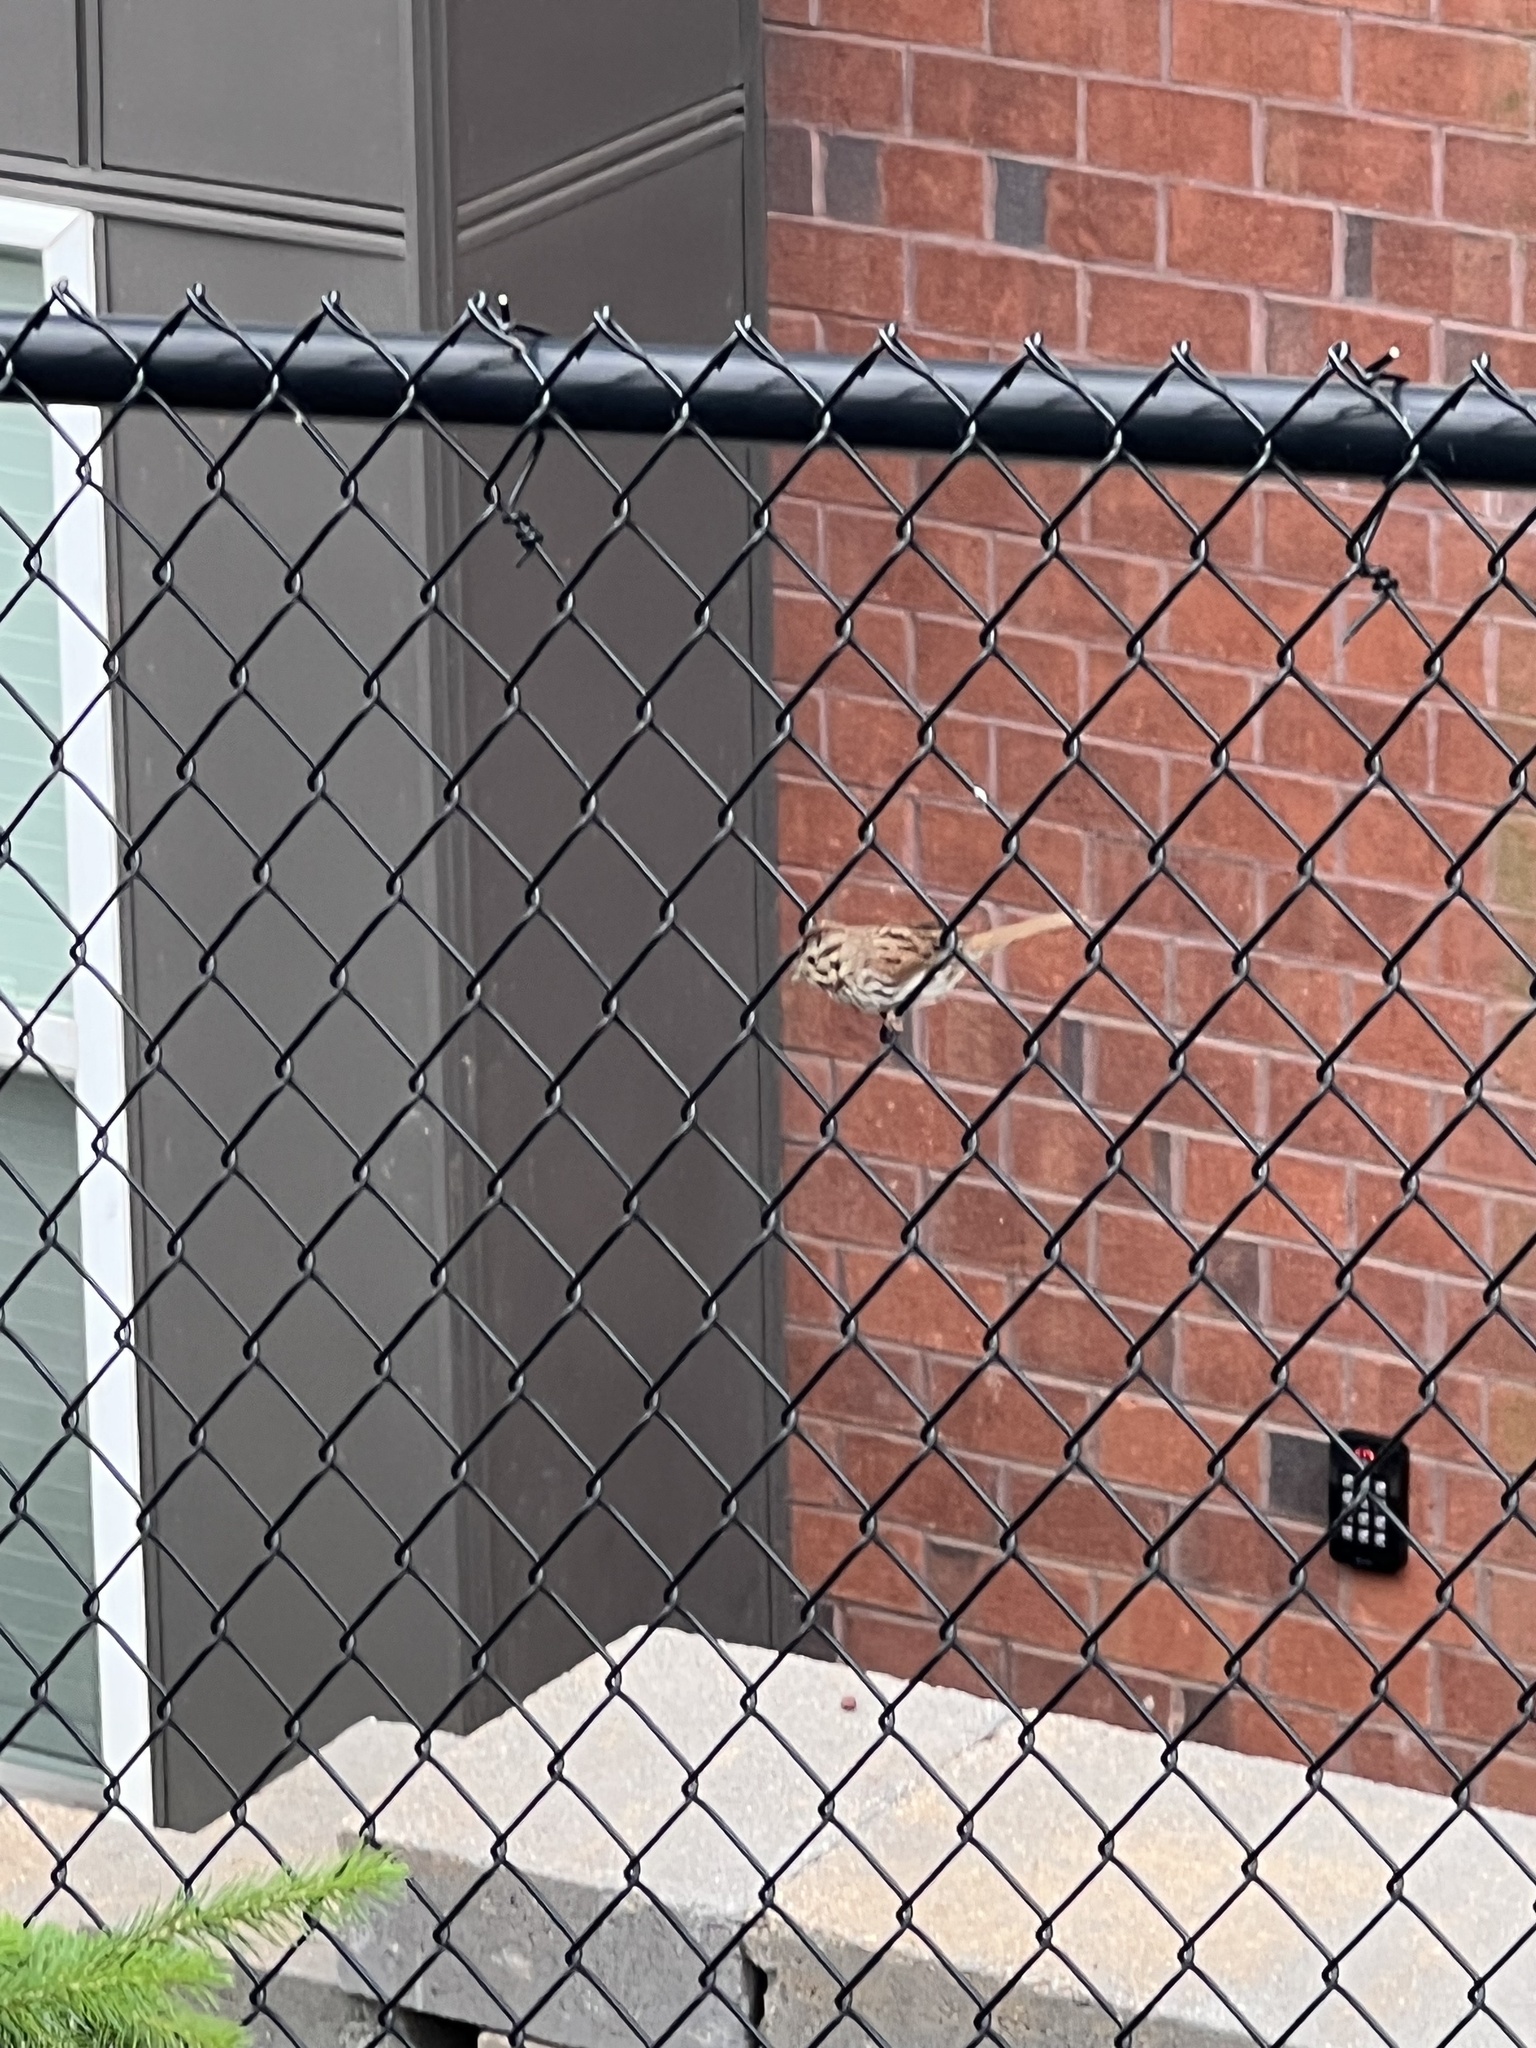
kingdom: Animalia
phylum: Chordata
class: Aves
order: Passeriformes
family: Passerellidae
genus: Melospiza
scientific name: Melospiza melodia
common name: Song sparrow
